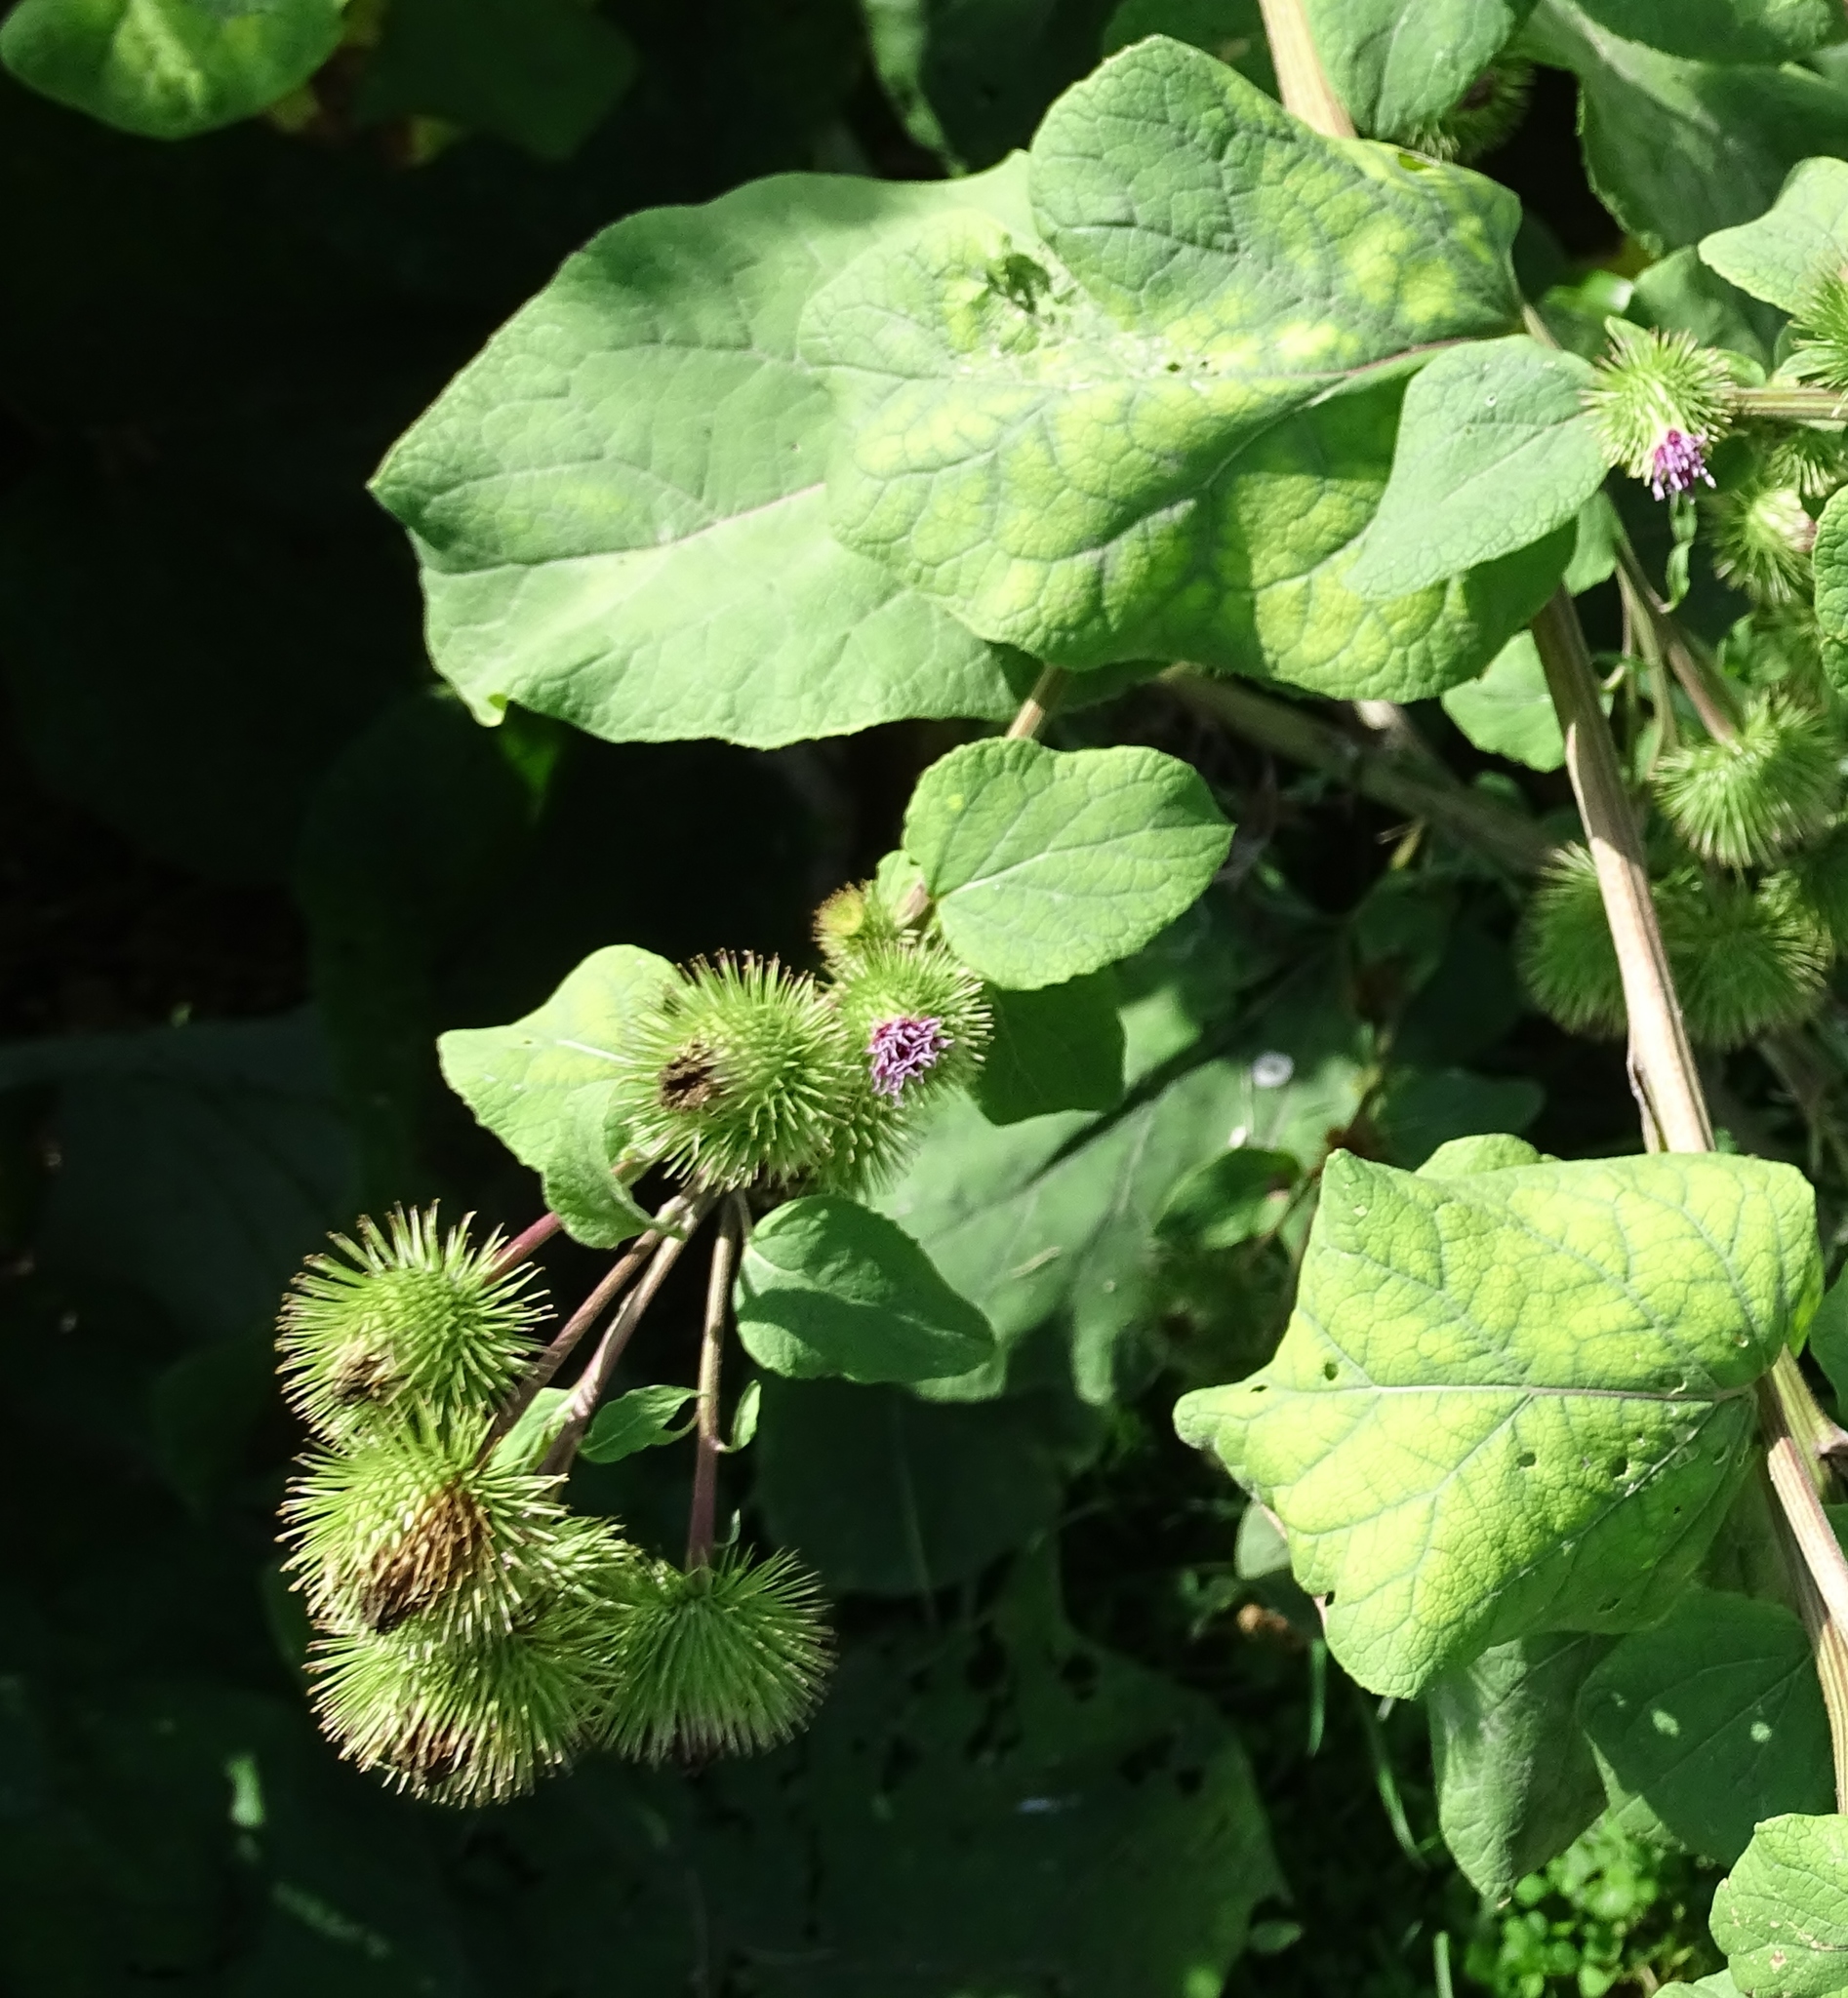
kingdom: Plantae
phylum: Tracheophyta
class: Magnoliopsida
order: Asterales
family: Asteraceae
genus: Arctium
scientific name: Arctium lappa
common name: Greater burdock
